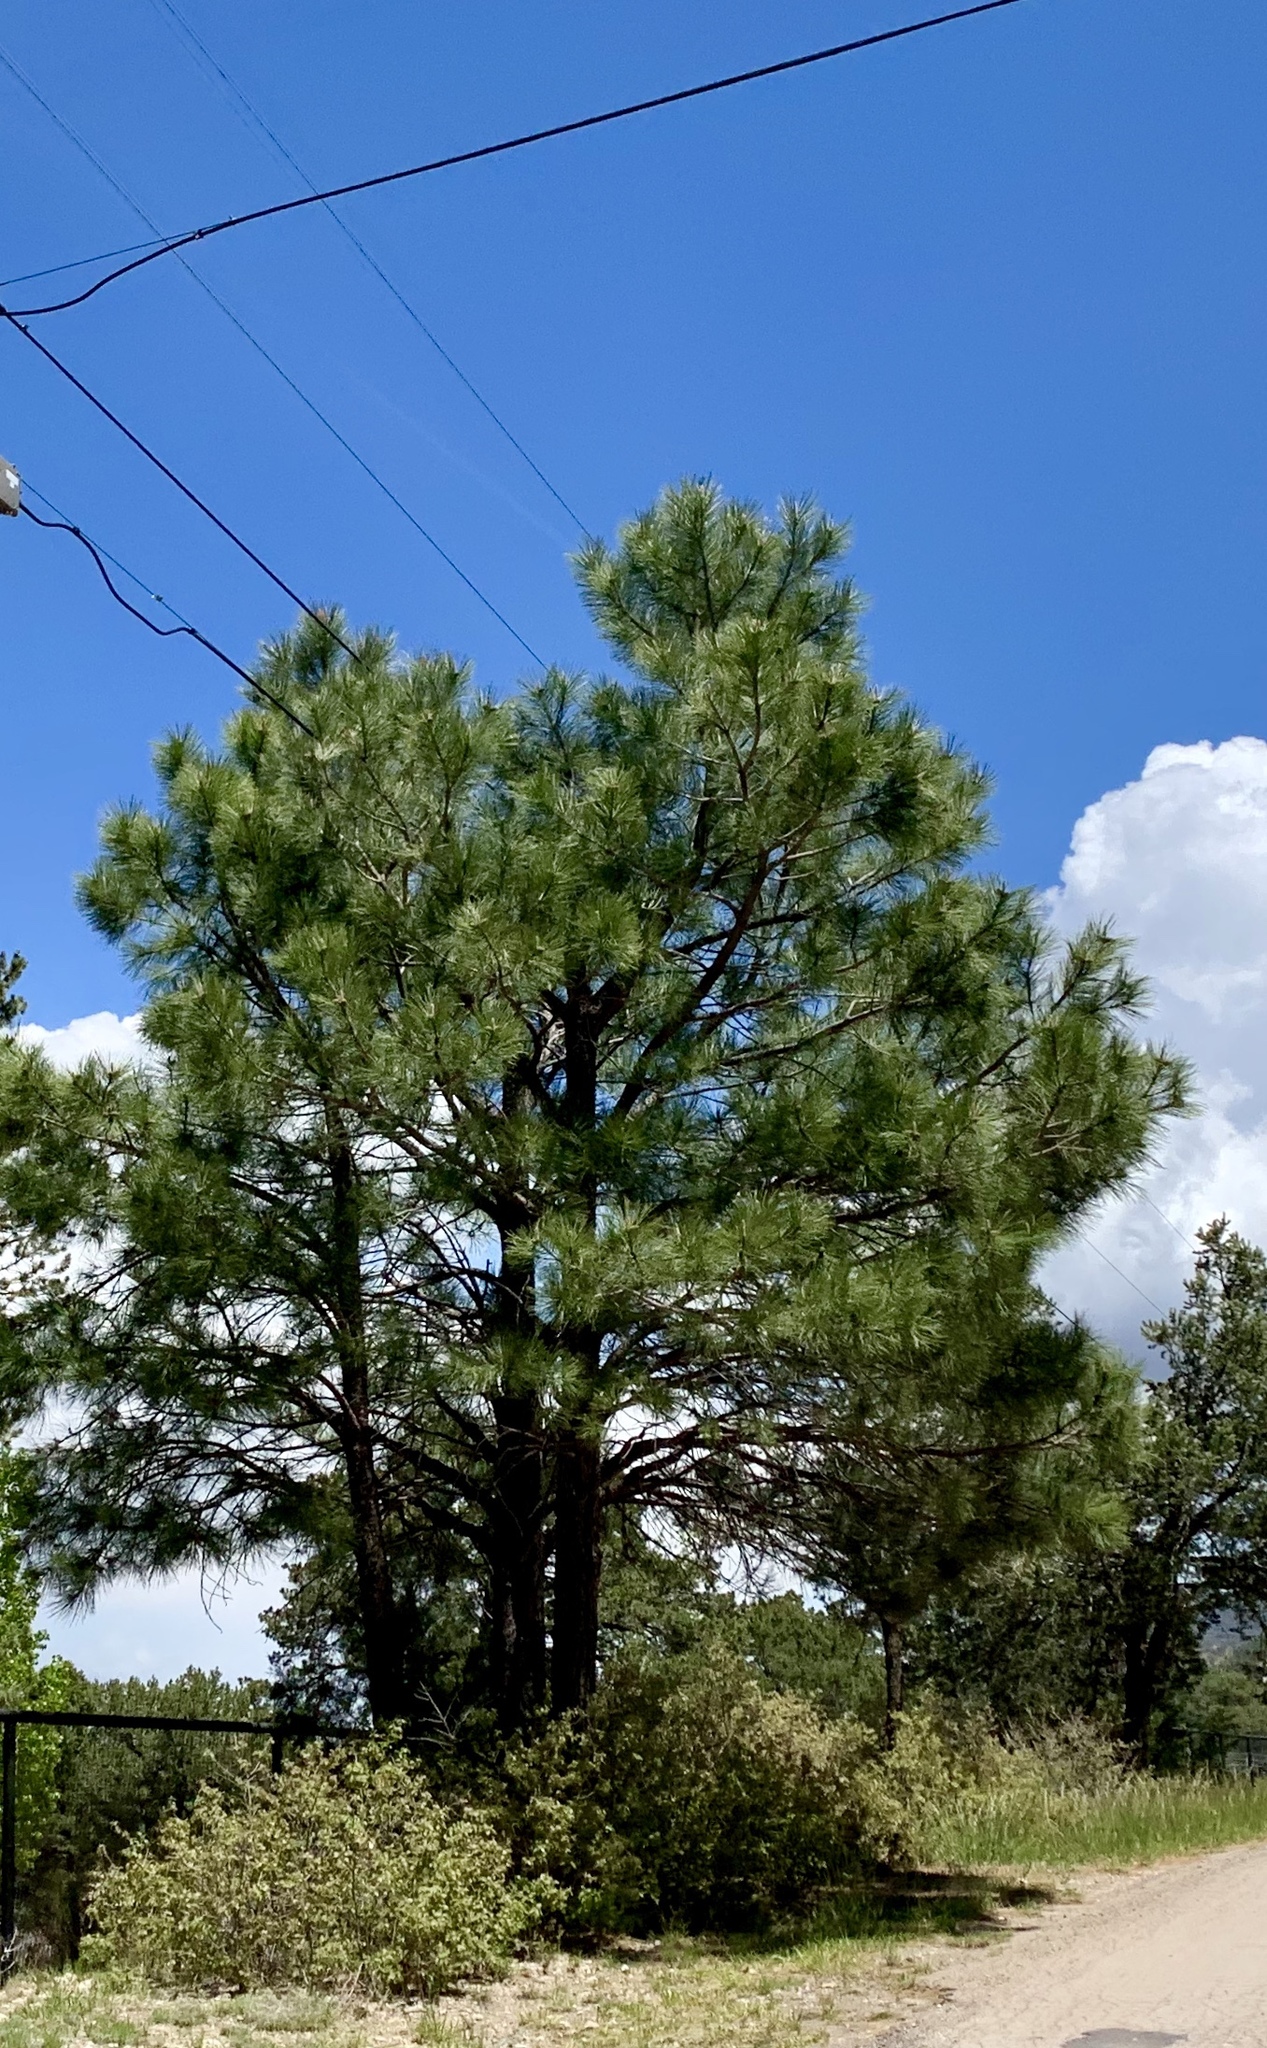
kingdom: Plantae
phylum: Tracheophyta
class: Pinopsida
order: Pinales
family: Pinaceae
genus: Pinus
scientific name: Pinus ponderosa
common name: Western yellow-pine
